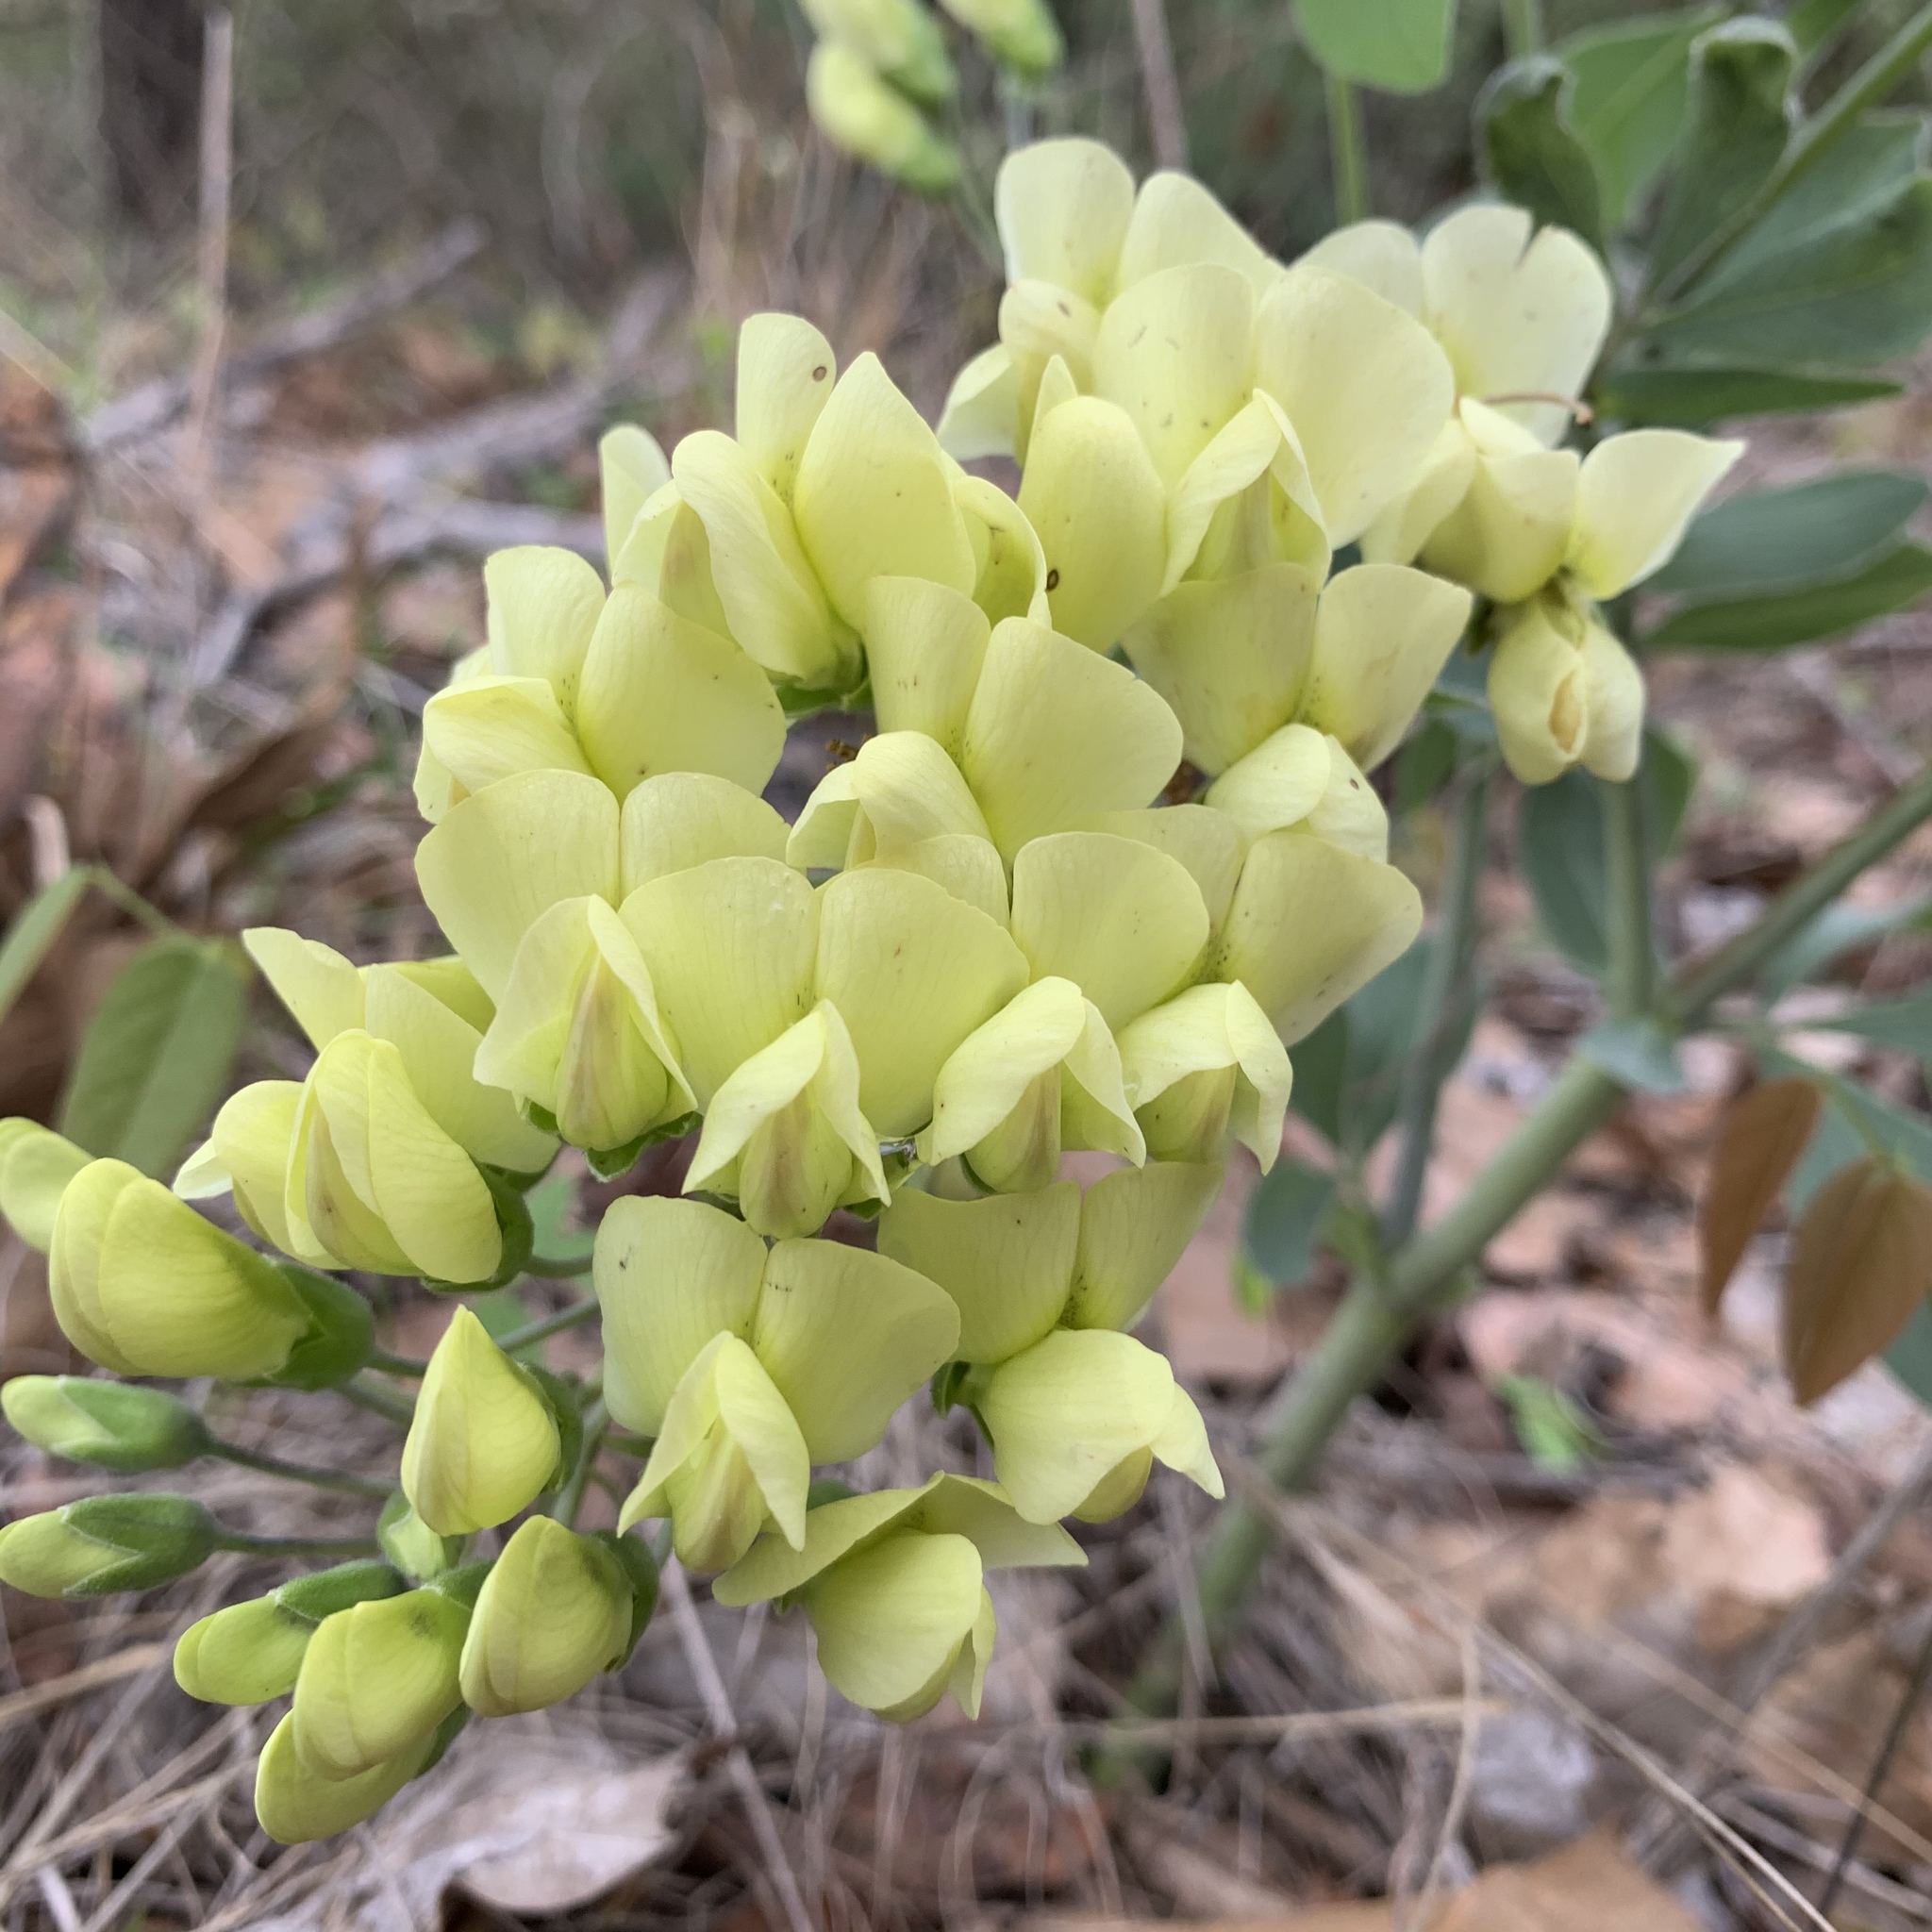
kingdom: Plantae
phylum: Tracheophyta
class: Magnoliopsida
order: Fabales
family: Fabaceae
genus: Baptisia
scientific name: Baptisia bracteata
